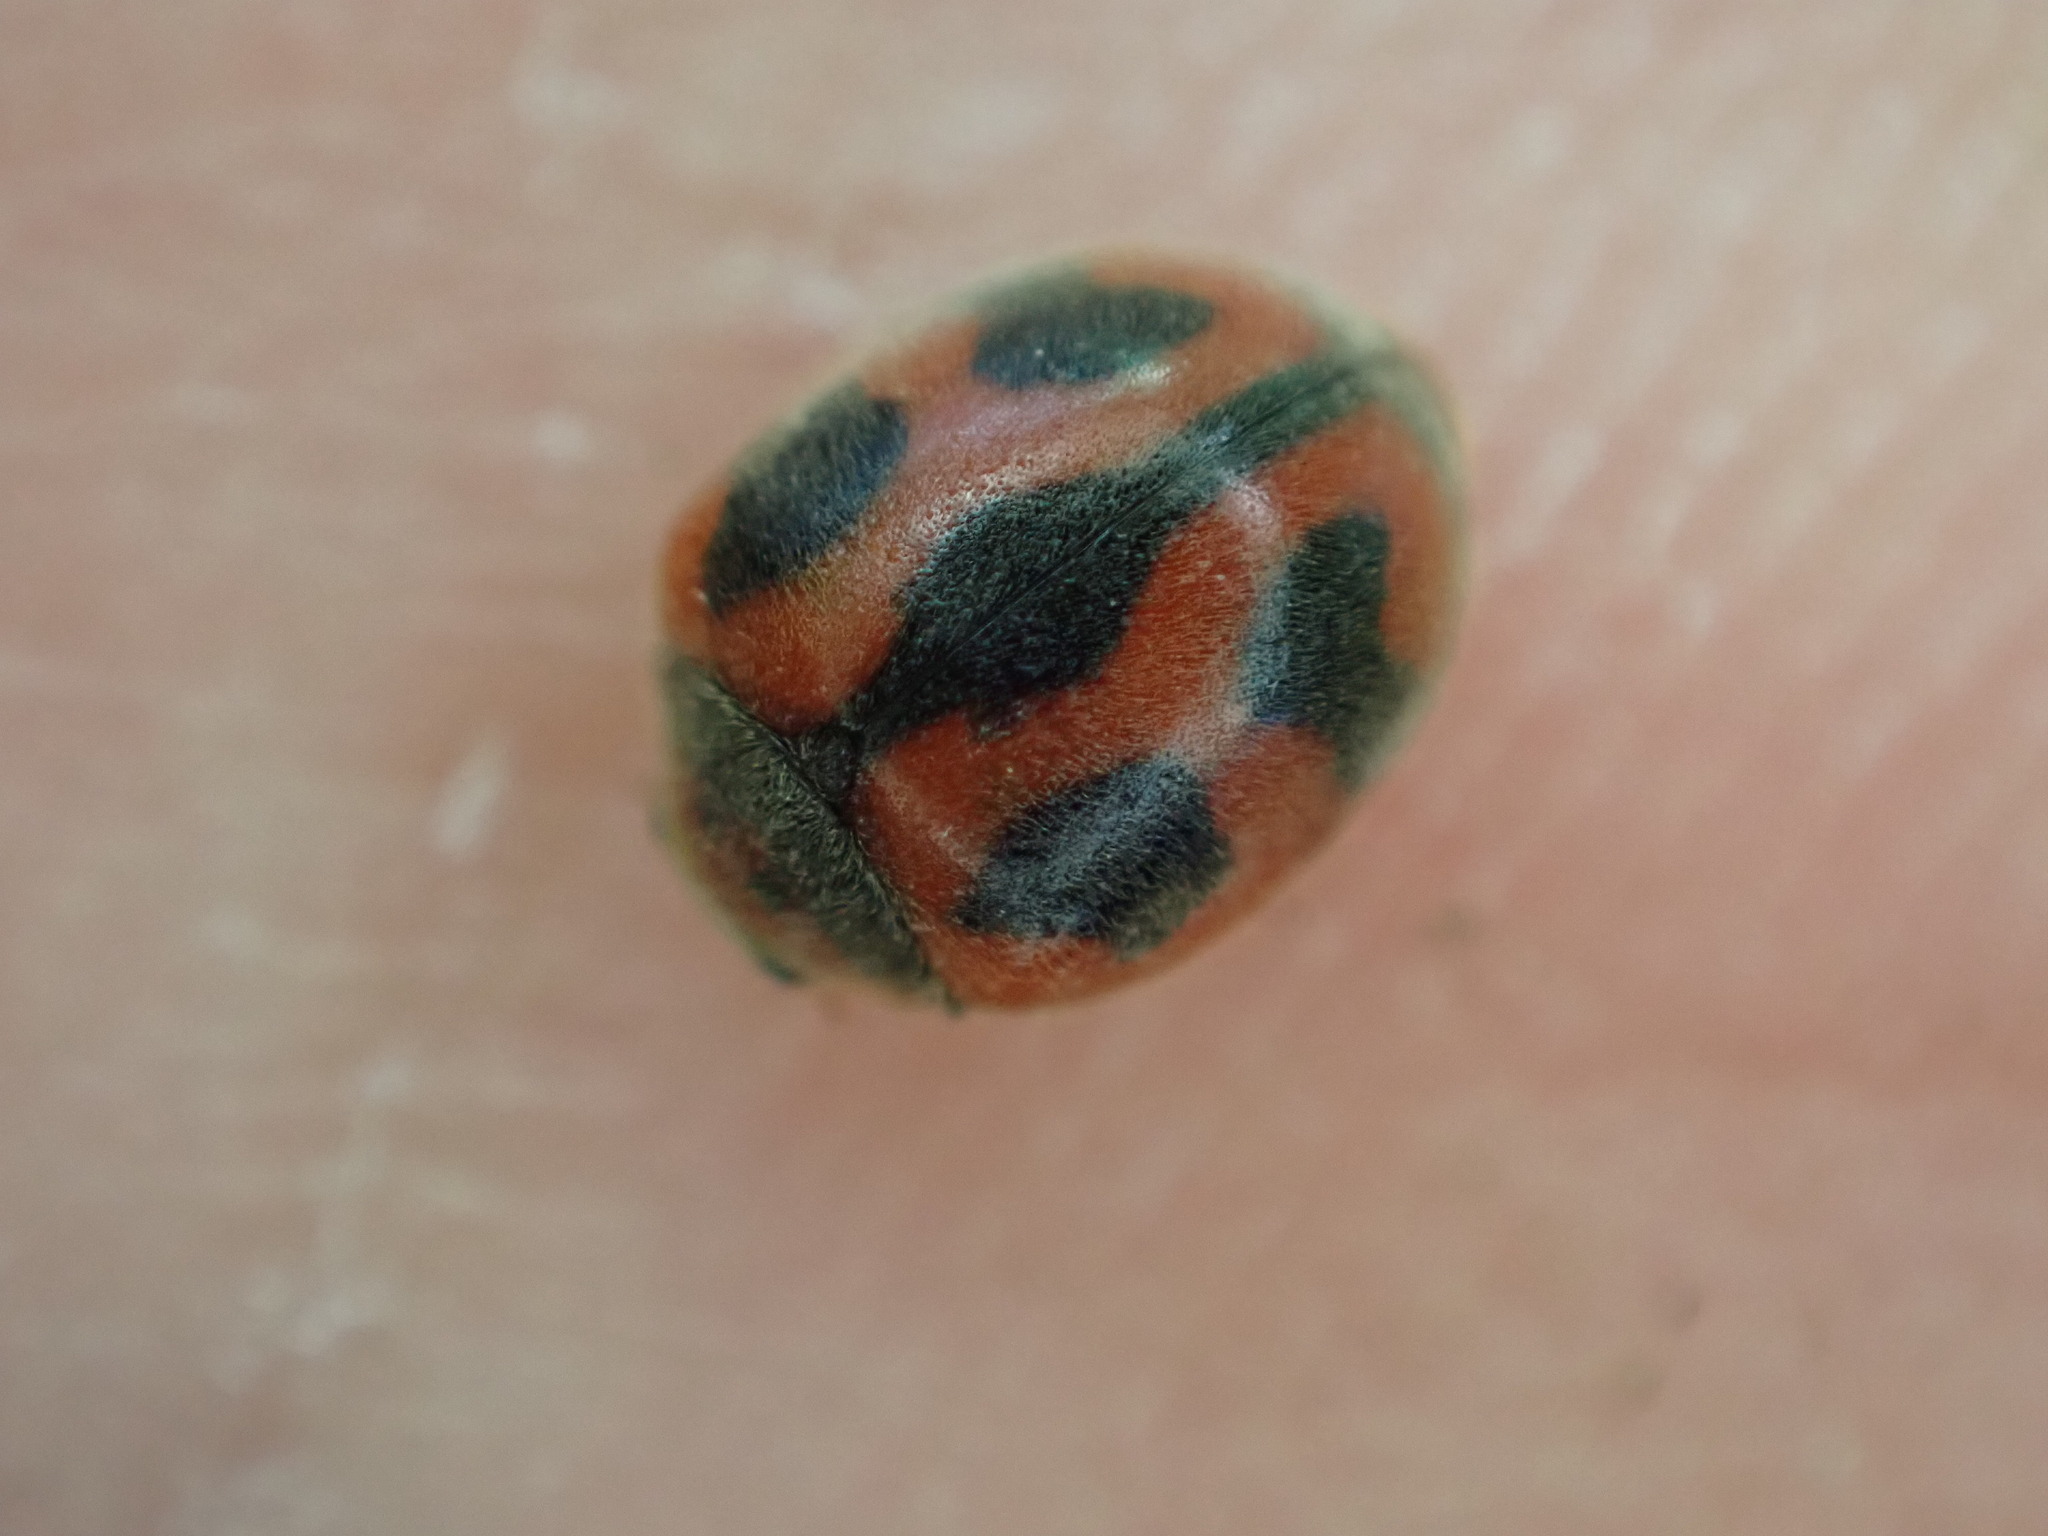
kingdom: Animalia
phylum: Arthropoda
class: Insecta
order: Coleoptera
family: Coccinellidae
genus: Novius
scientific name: Novius cardinalis
